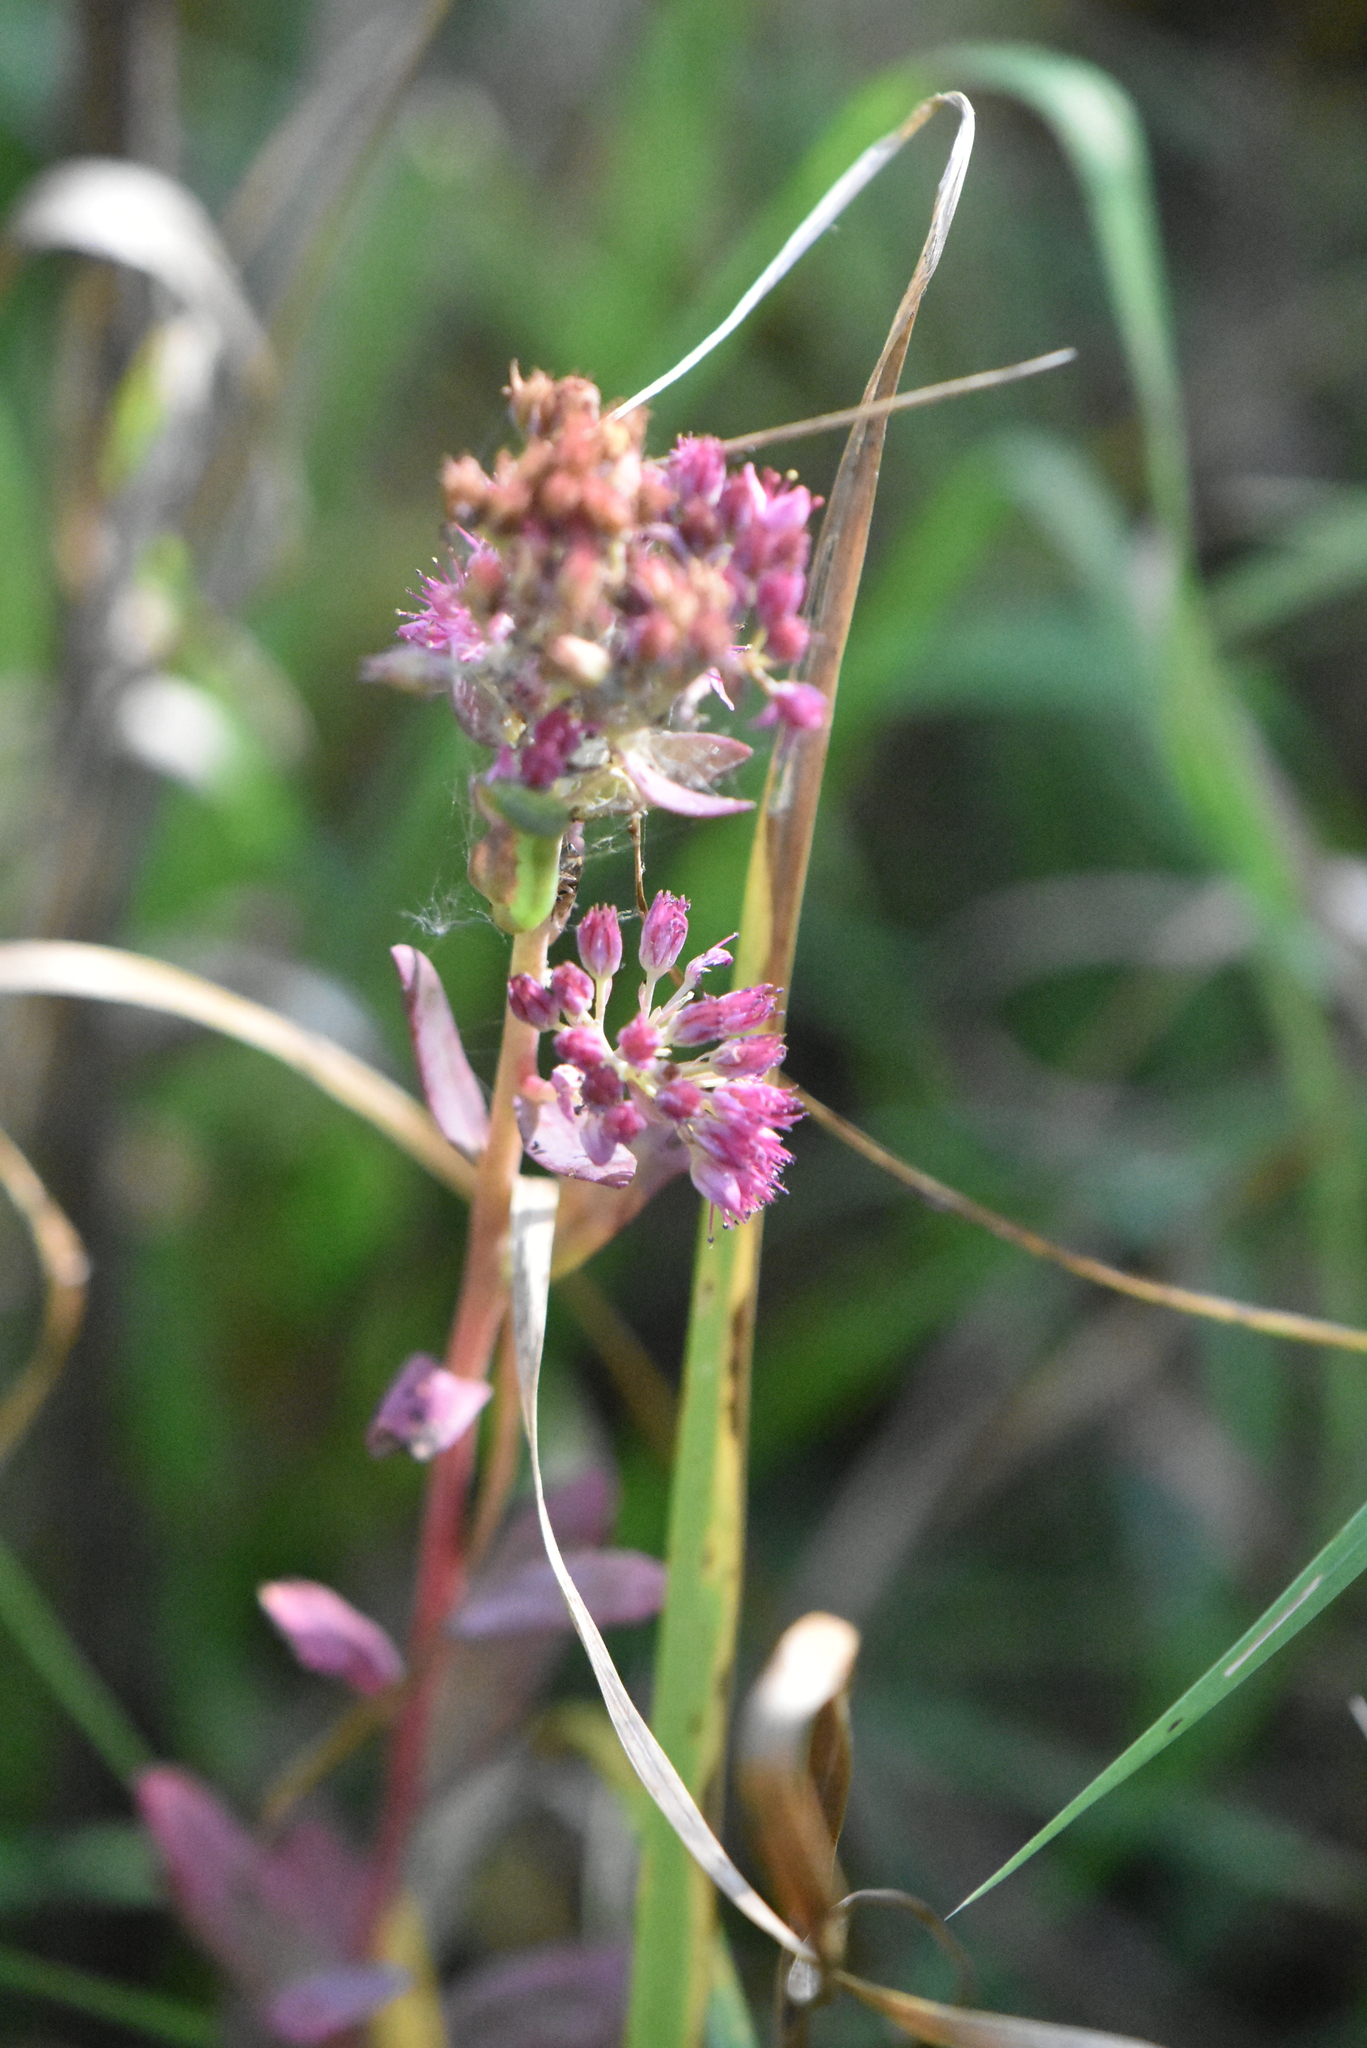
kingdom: Plantae
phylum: Tracheophyta
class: Magnoliopsida
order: Saxifragales
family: Crassulaceae
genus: Hylotelephium
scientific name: Hylotelephium telephium
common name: Live-forever
